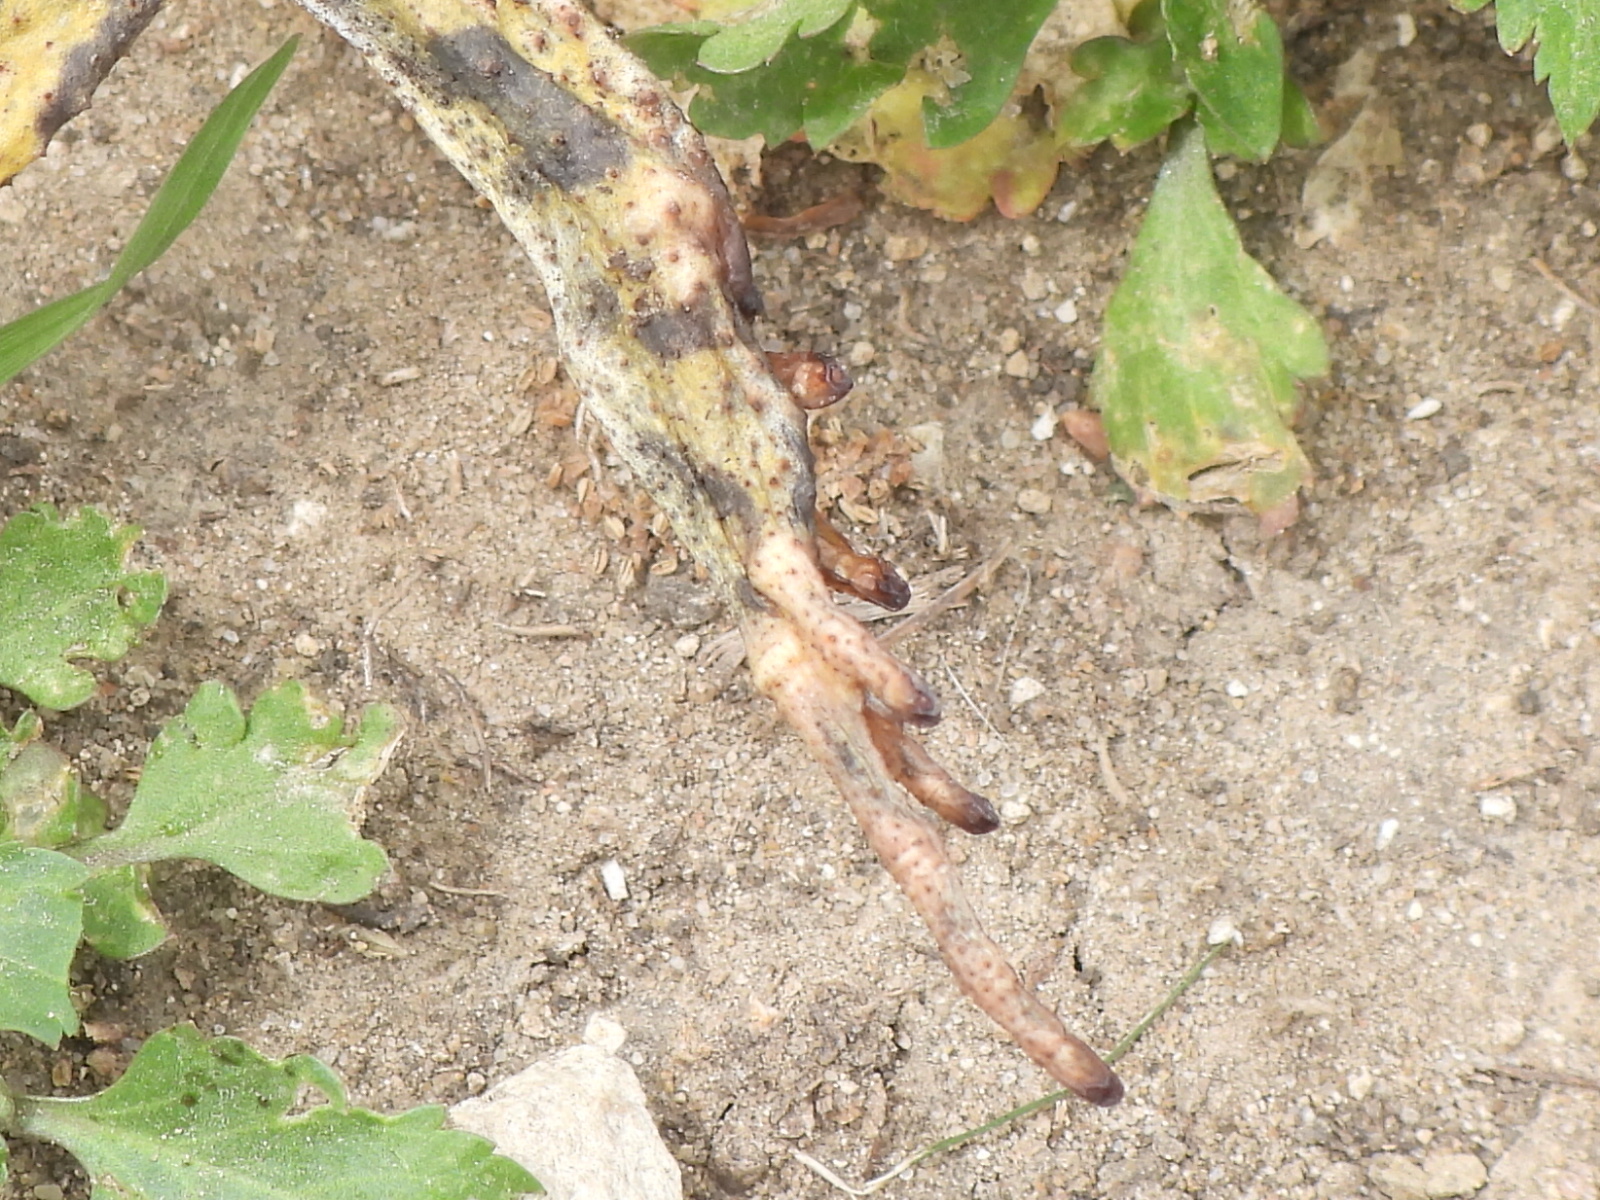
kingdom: Animalia
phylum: Chordata
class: Amphibia
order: Anura
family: Bufonidae
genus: Incilius
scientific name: Incilius nebulifer
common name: Gulf coast toad
